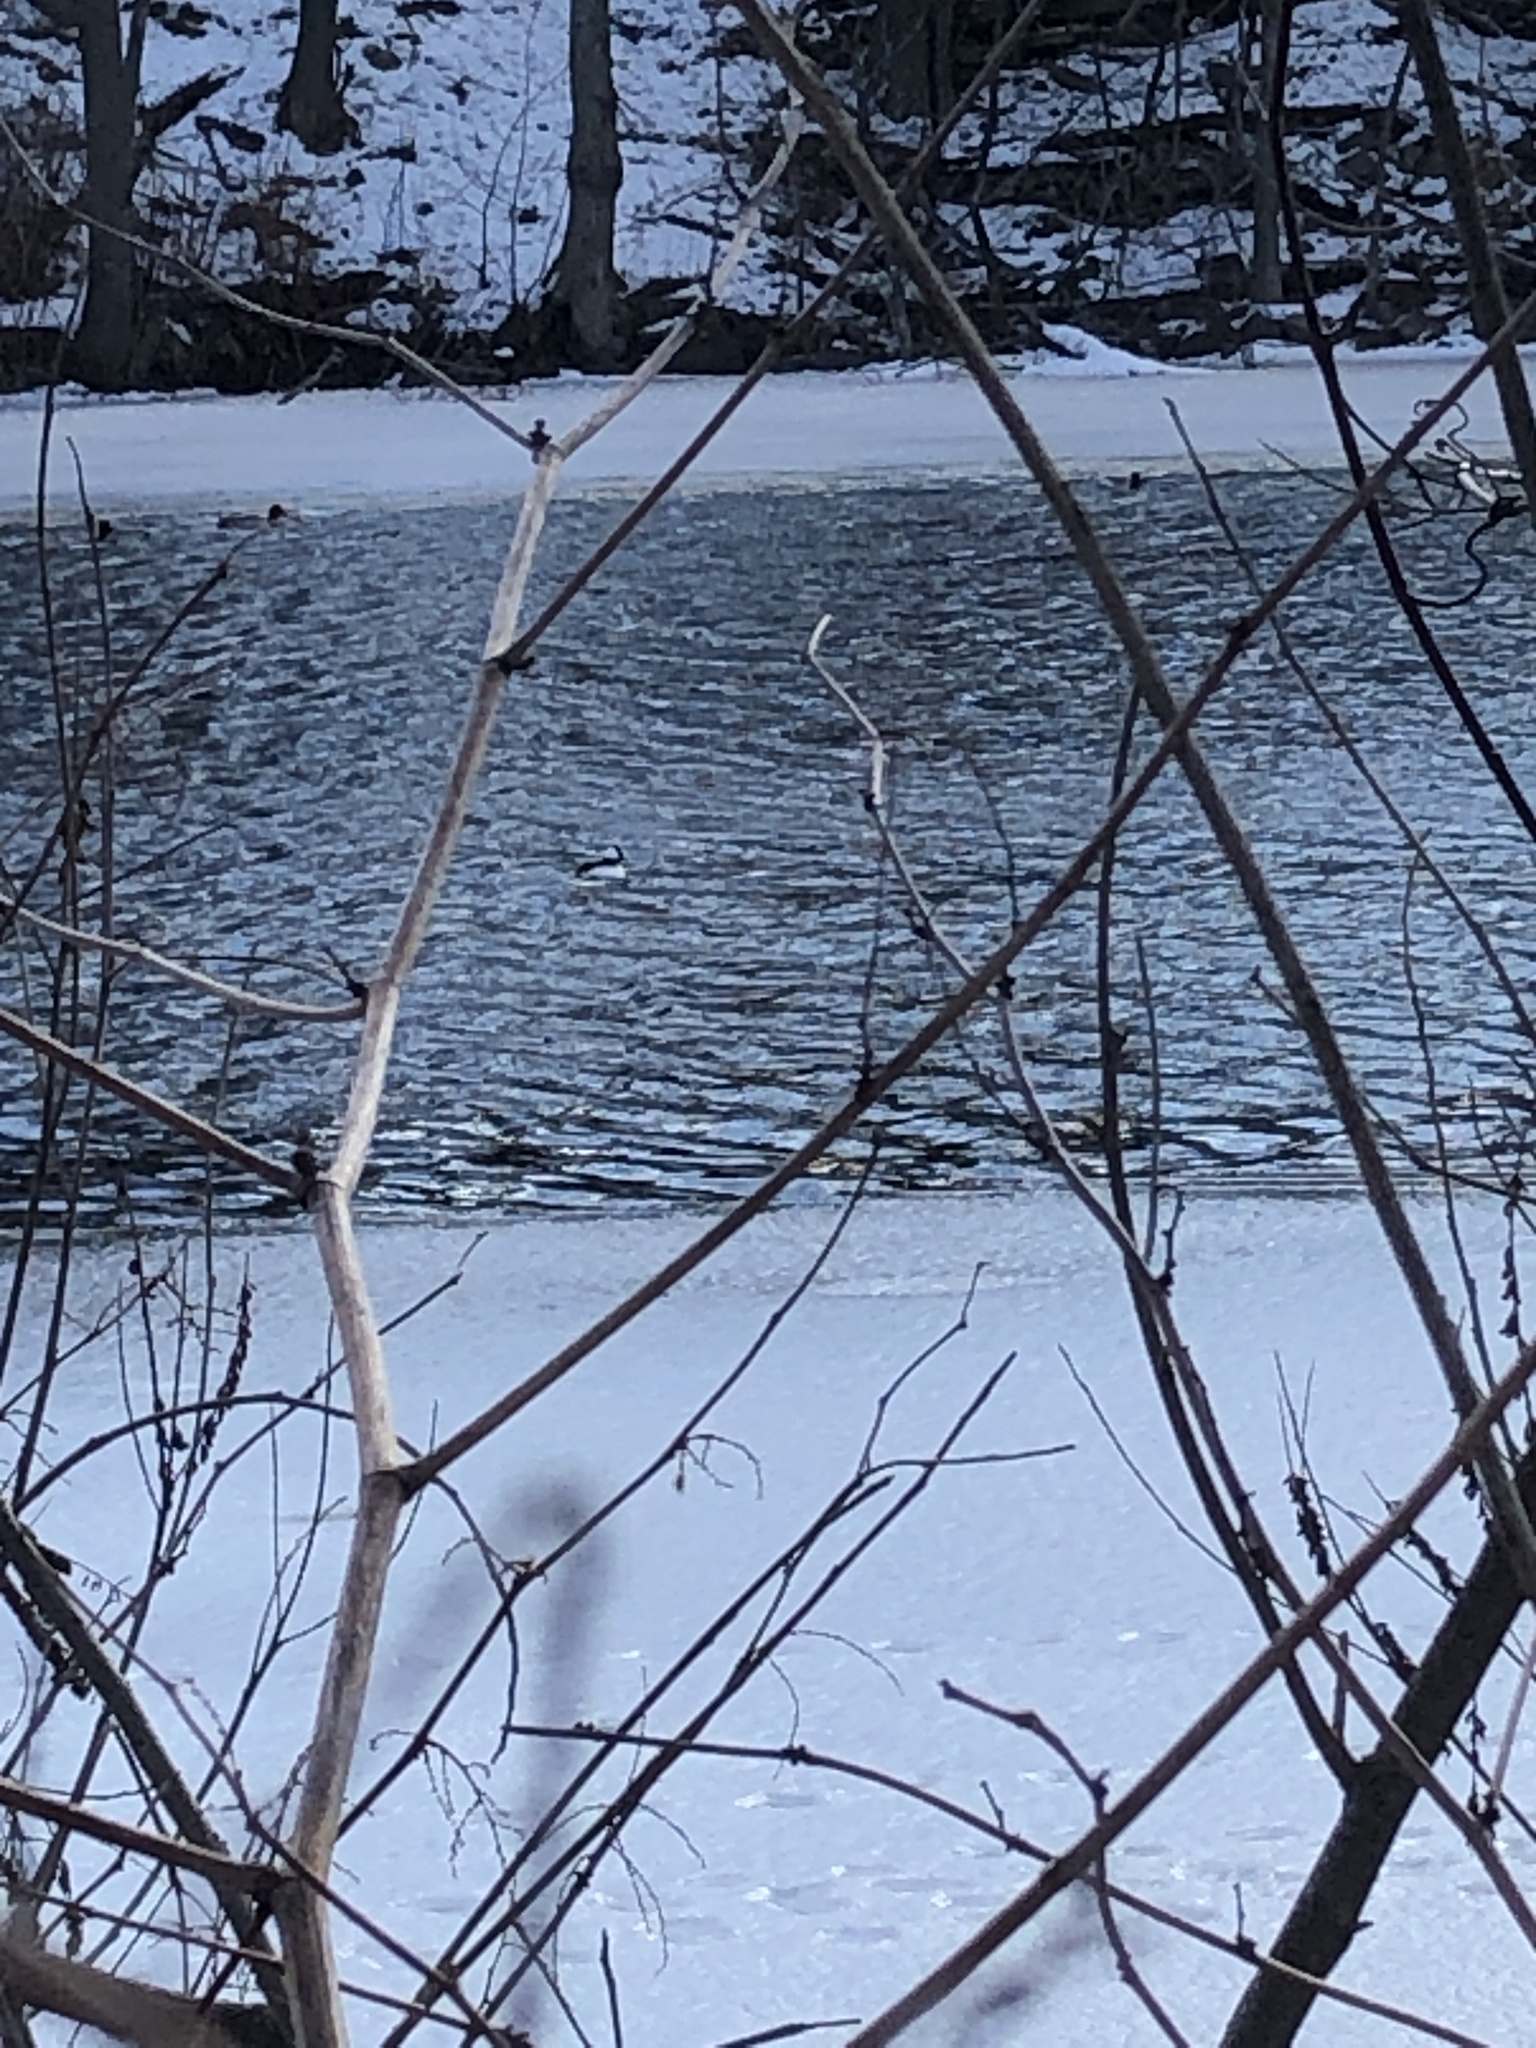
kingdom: Animalia
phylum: Chordata
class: Aves
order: Anseriformes
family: Anatidae
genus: Bucephala
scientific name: Bucephala albeola
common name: Bufflehead
